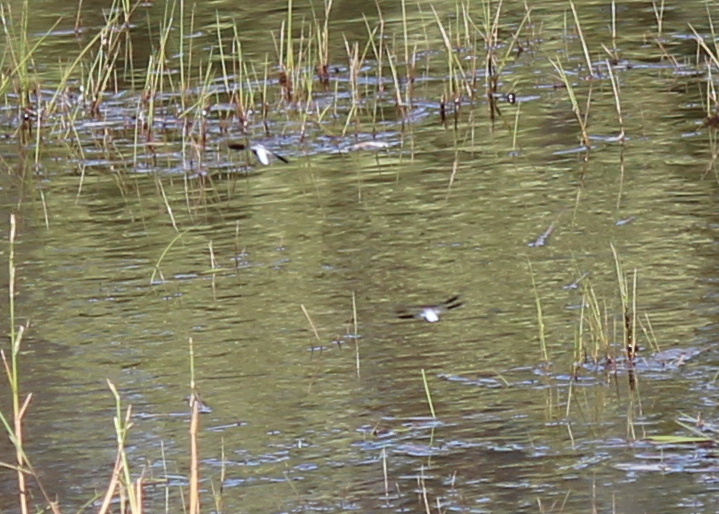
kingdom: Animalia
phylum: Arthropoda
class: Insecta
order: Odonata
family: Libellulidae
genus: Plathemis
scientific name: Plathemis lydia
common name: Common whitetail
